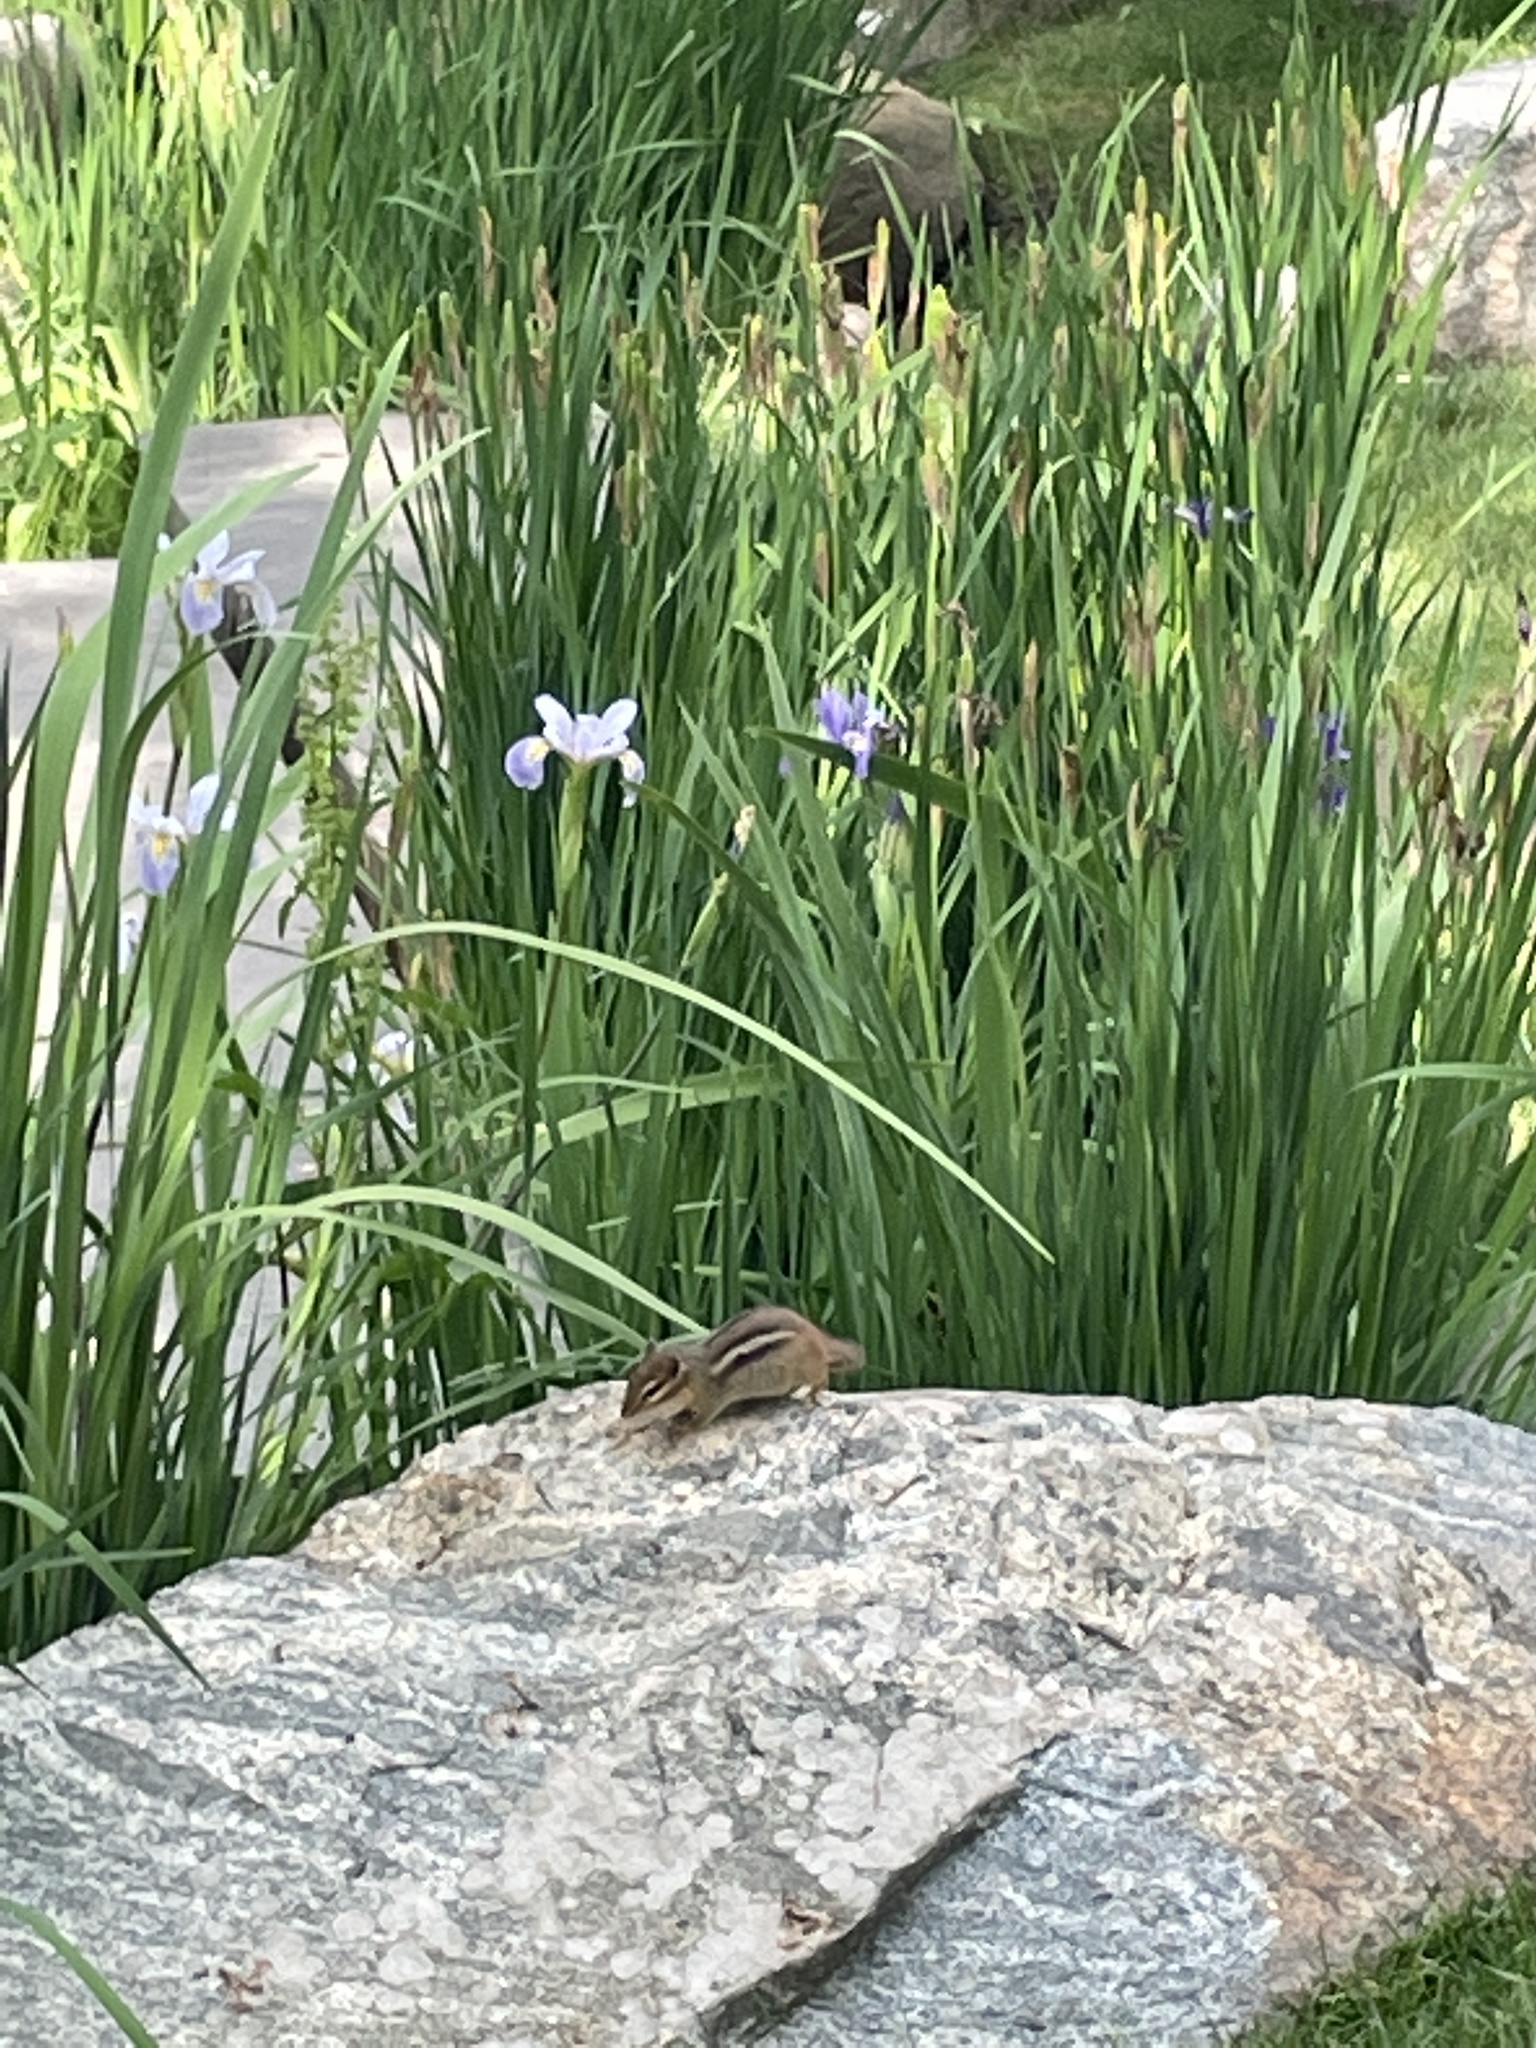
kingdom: Animalia
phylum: Chordata
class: Mammalia
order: Rodentia
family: Sciuridae
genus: Tamias
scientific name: Tamias striatus
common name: Eastern chipmunk
